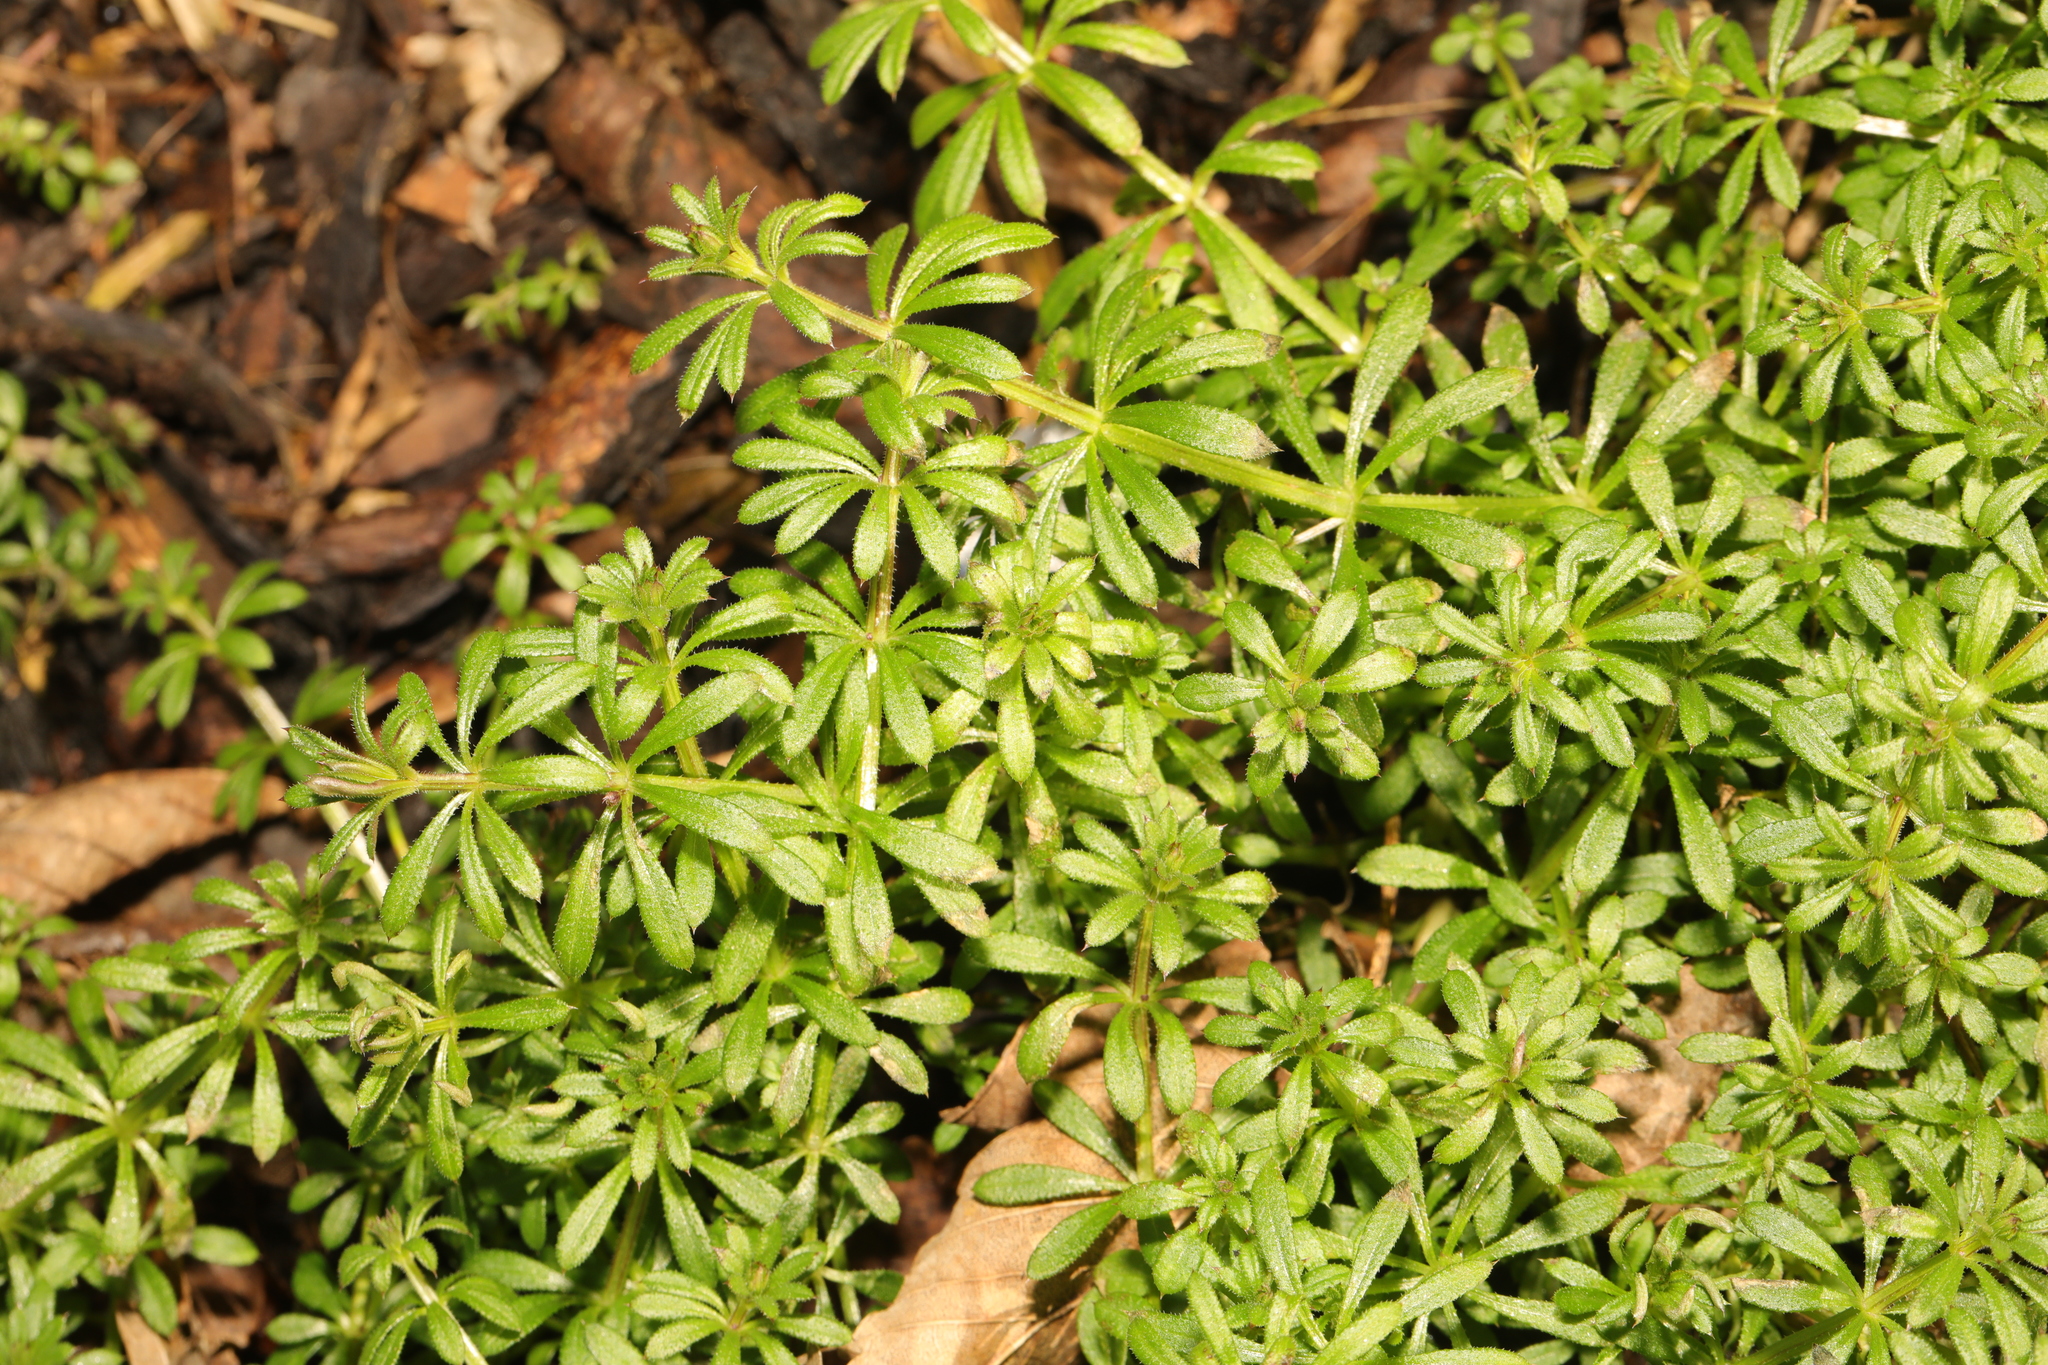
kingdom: Plantae
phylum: Tracheophyta
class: Magnoliopsida
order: Gentianales
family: Rubiaceae
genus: Galium
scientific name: Galium aparine
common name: Cleavers
